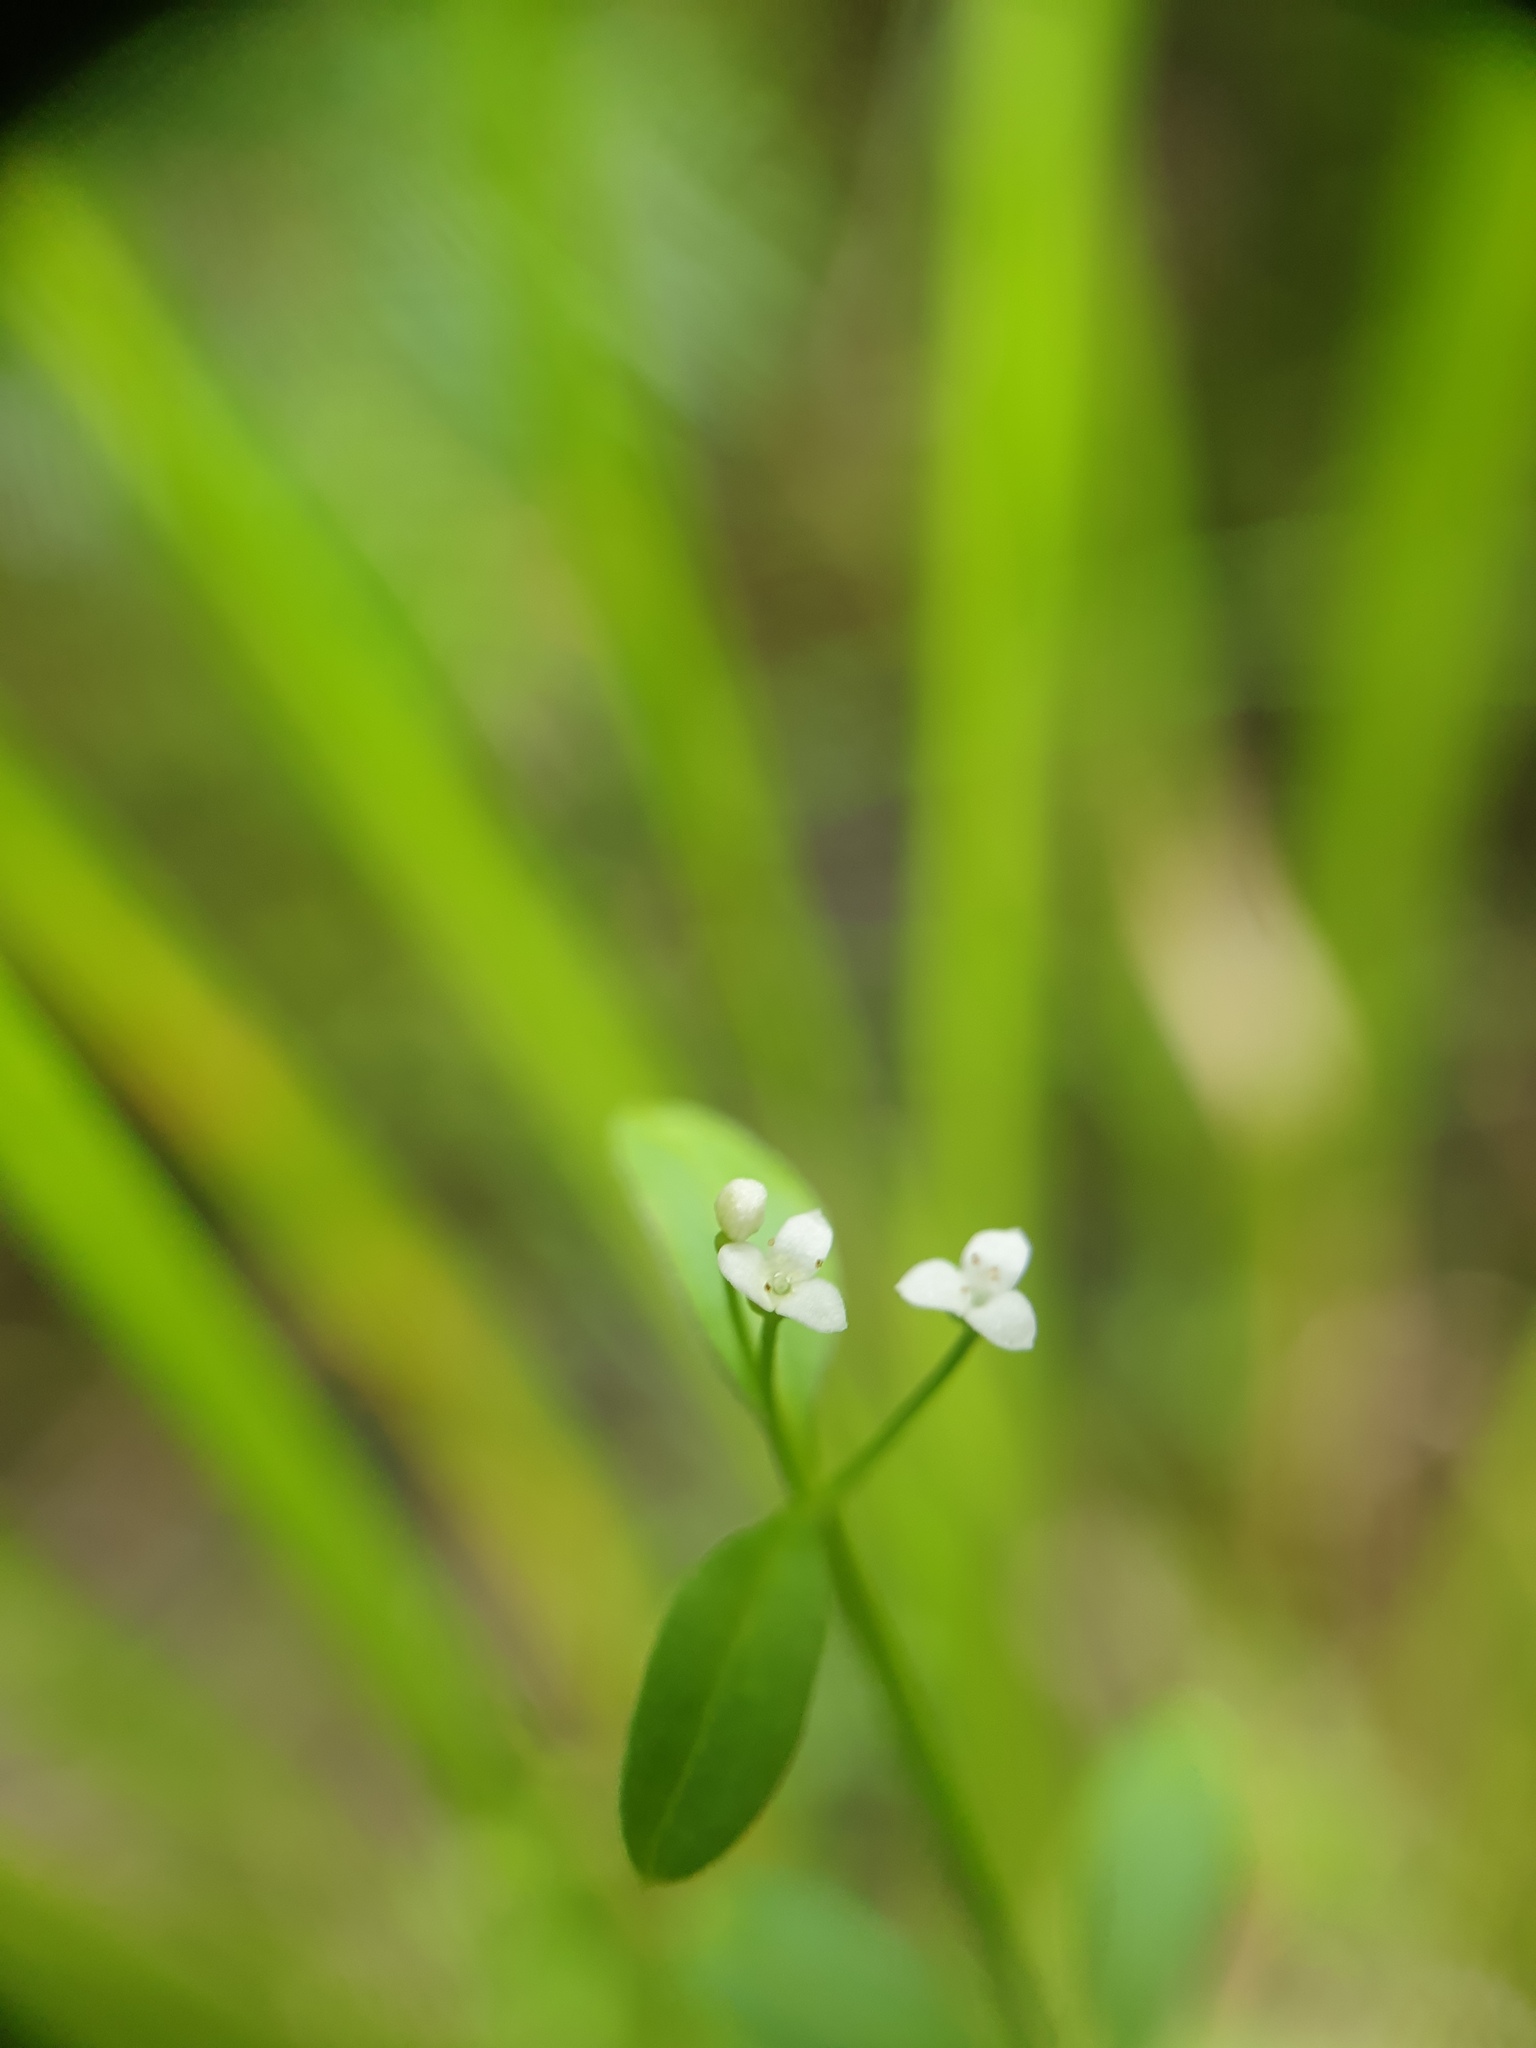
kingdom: Plantae
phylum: Tracheophyta
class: Magnoliopsida
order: Gentianales
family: Rubiaceae
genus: Galium
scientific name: Galium tinctorium
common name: Bedstraw
